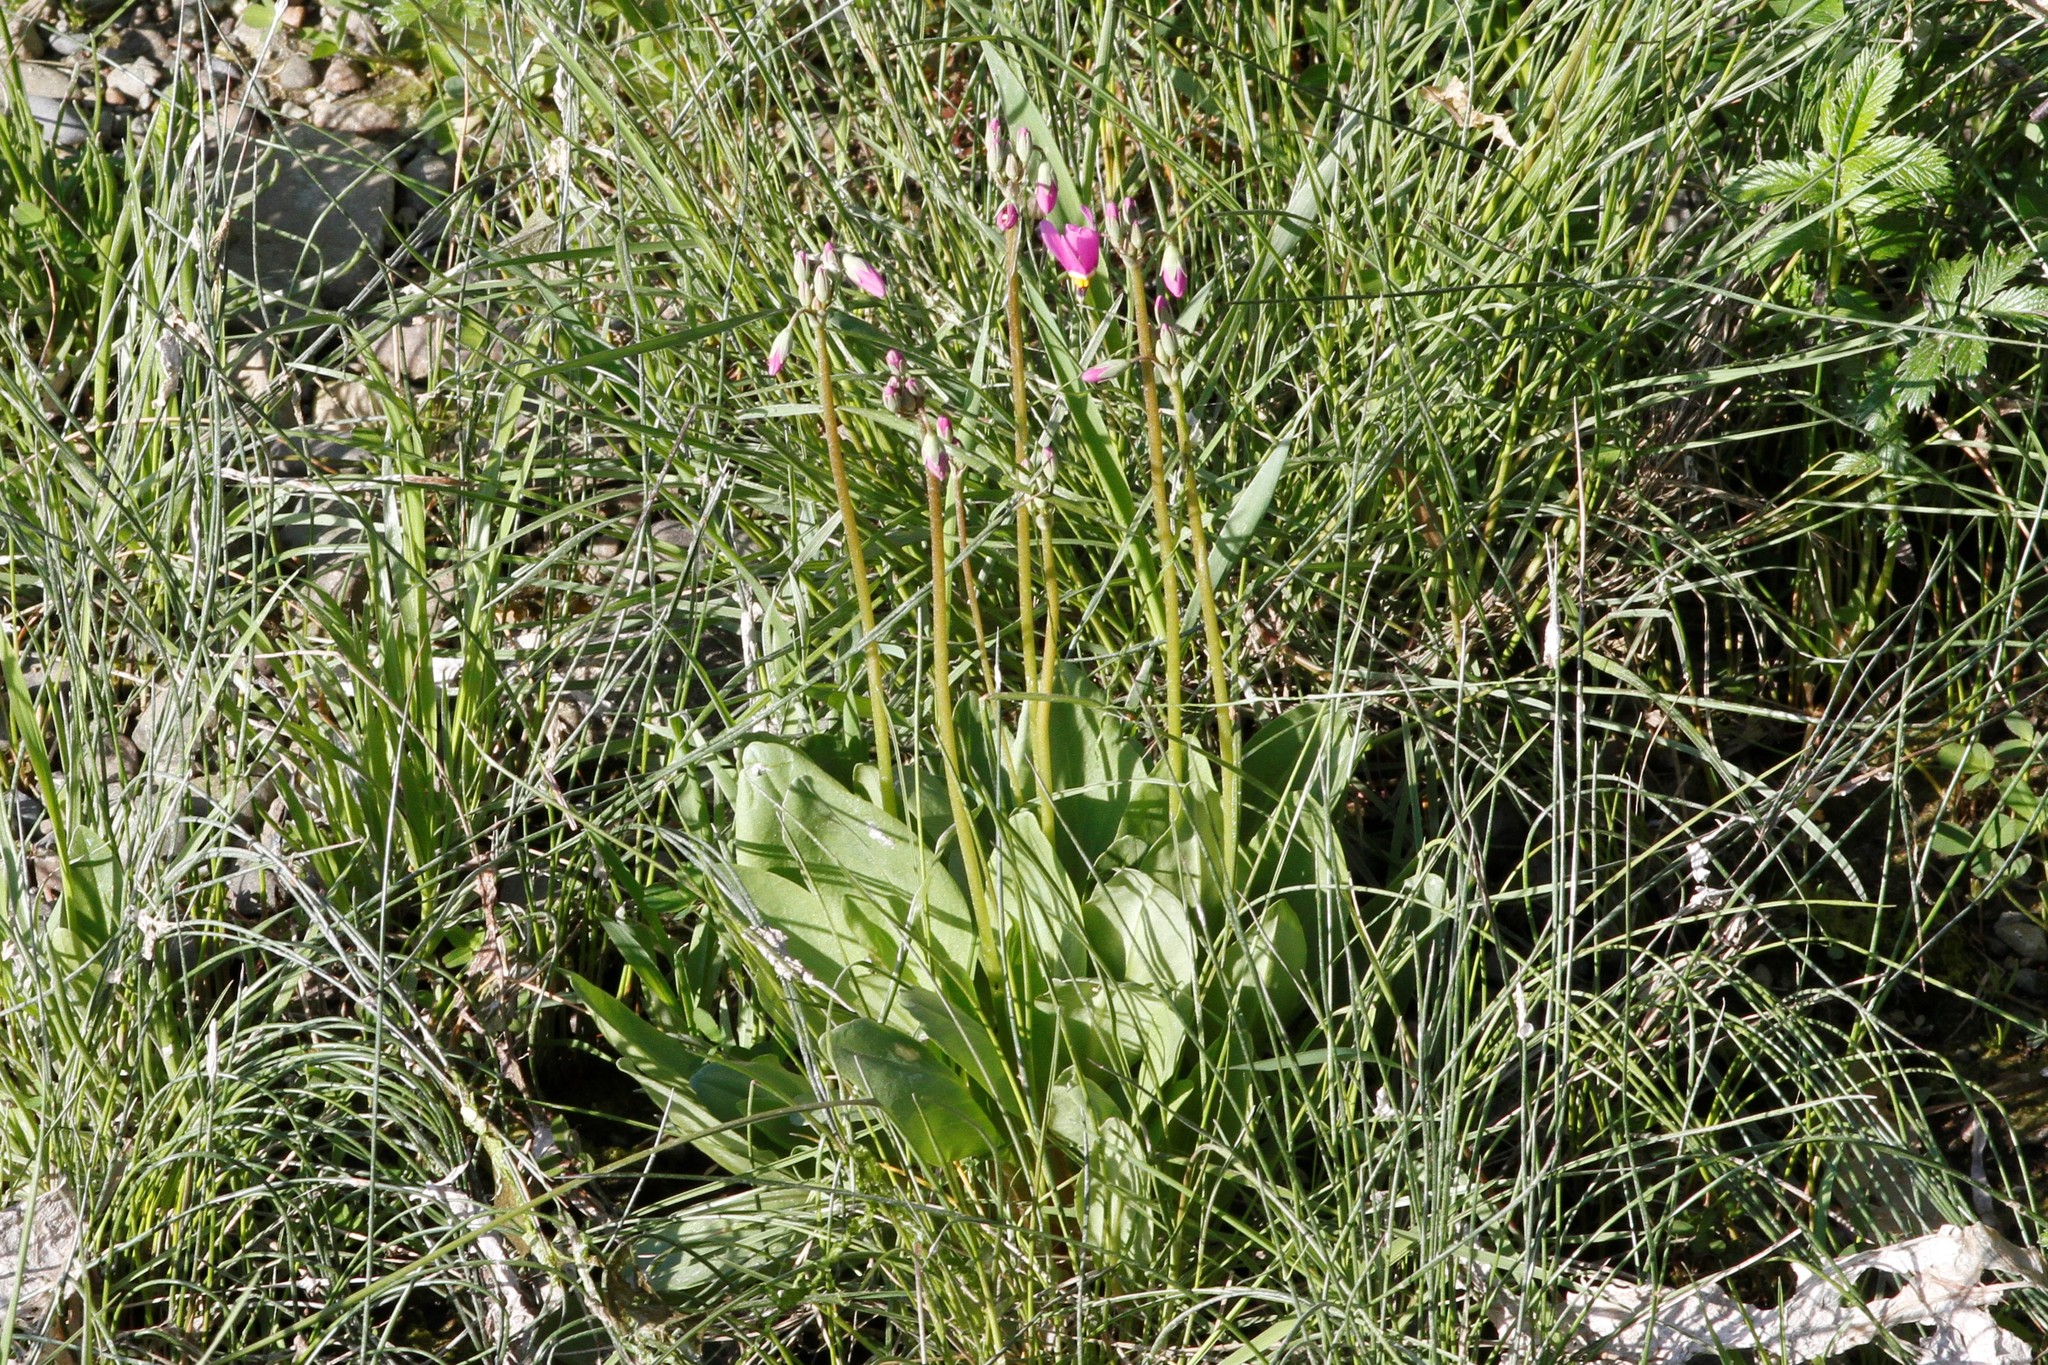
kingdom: Plantae
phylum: Tracheophyta
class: Magnoliopsida
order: Ericales
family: Primulaceae
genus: Dodecatheon
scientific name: Dodecatheon pulchellum
